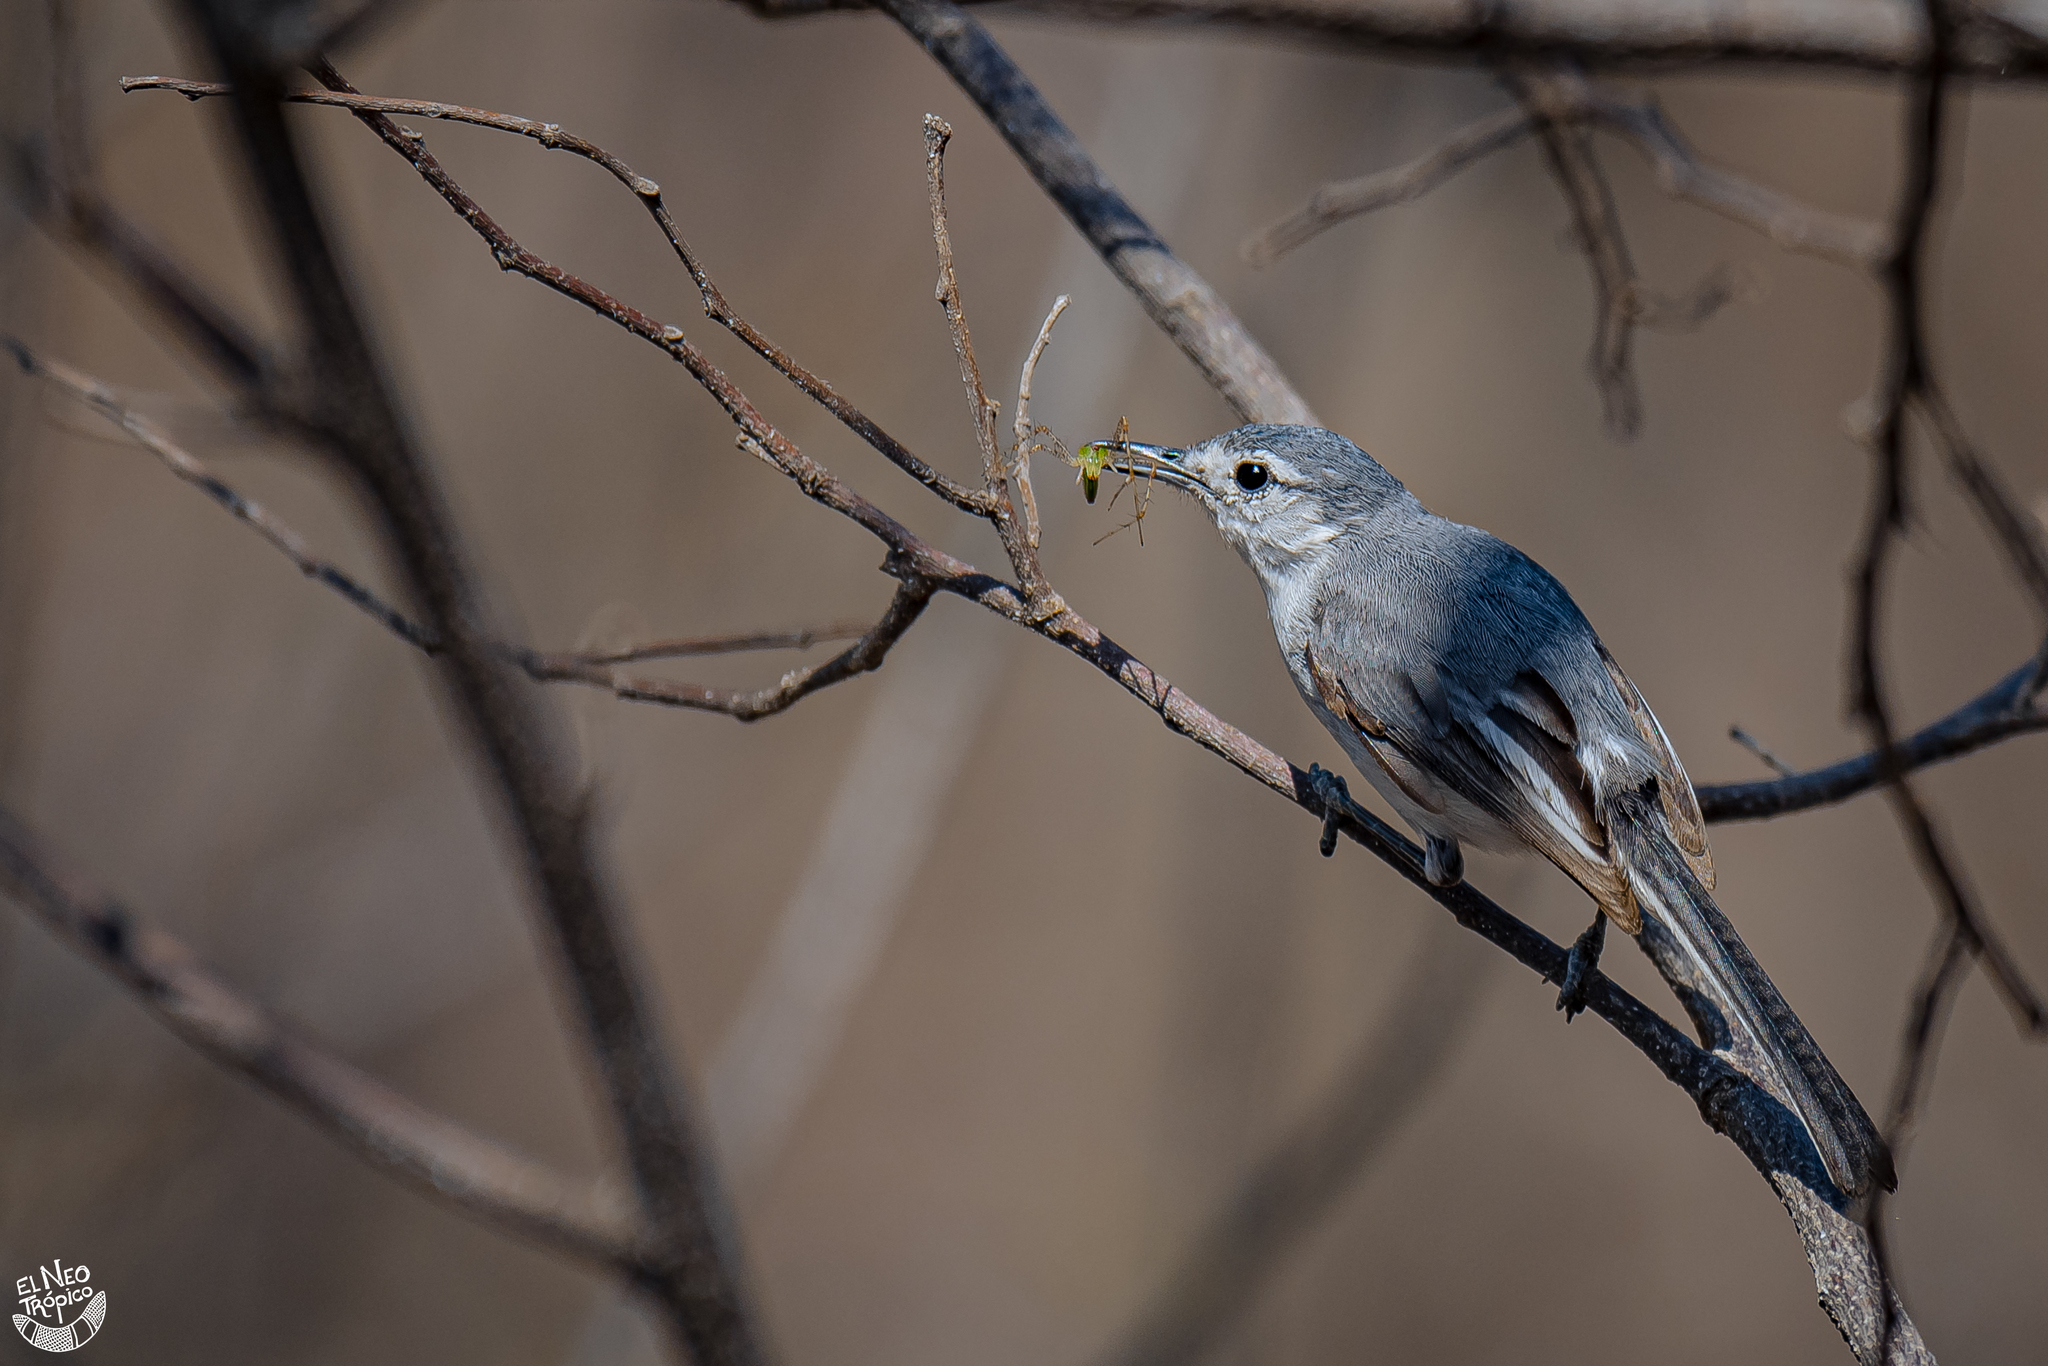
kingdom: Animalia
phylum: Chordata
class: Aves
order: Passeriformes
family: Polioptilidae
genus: Polioptila
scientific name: Polioptila albiloris
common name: White-lored gnatcatcher
